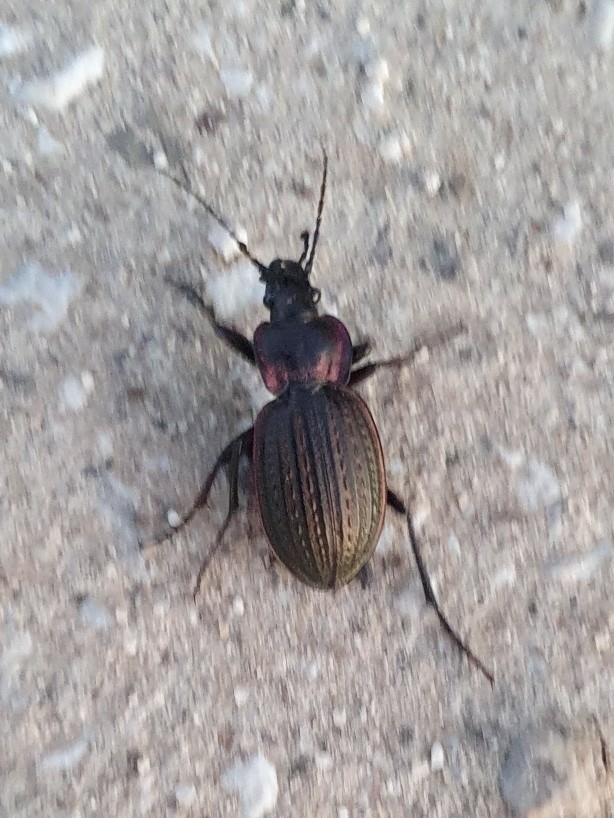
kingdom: Animalia
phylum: Arthropoda
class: Insecta
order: Coleoptera
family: Carabidae
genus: Carabus
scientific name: Carabus faminii
